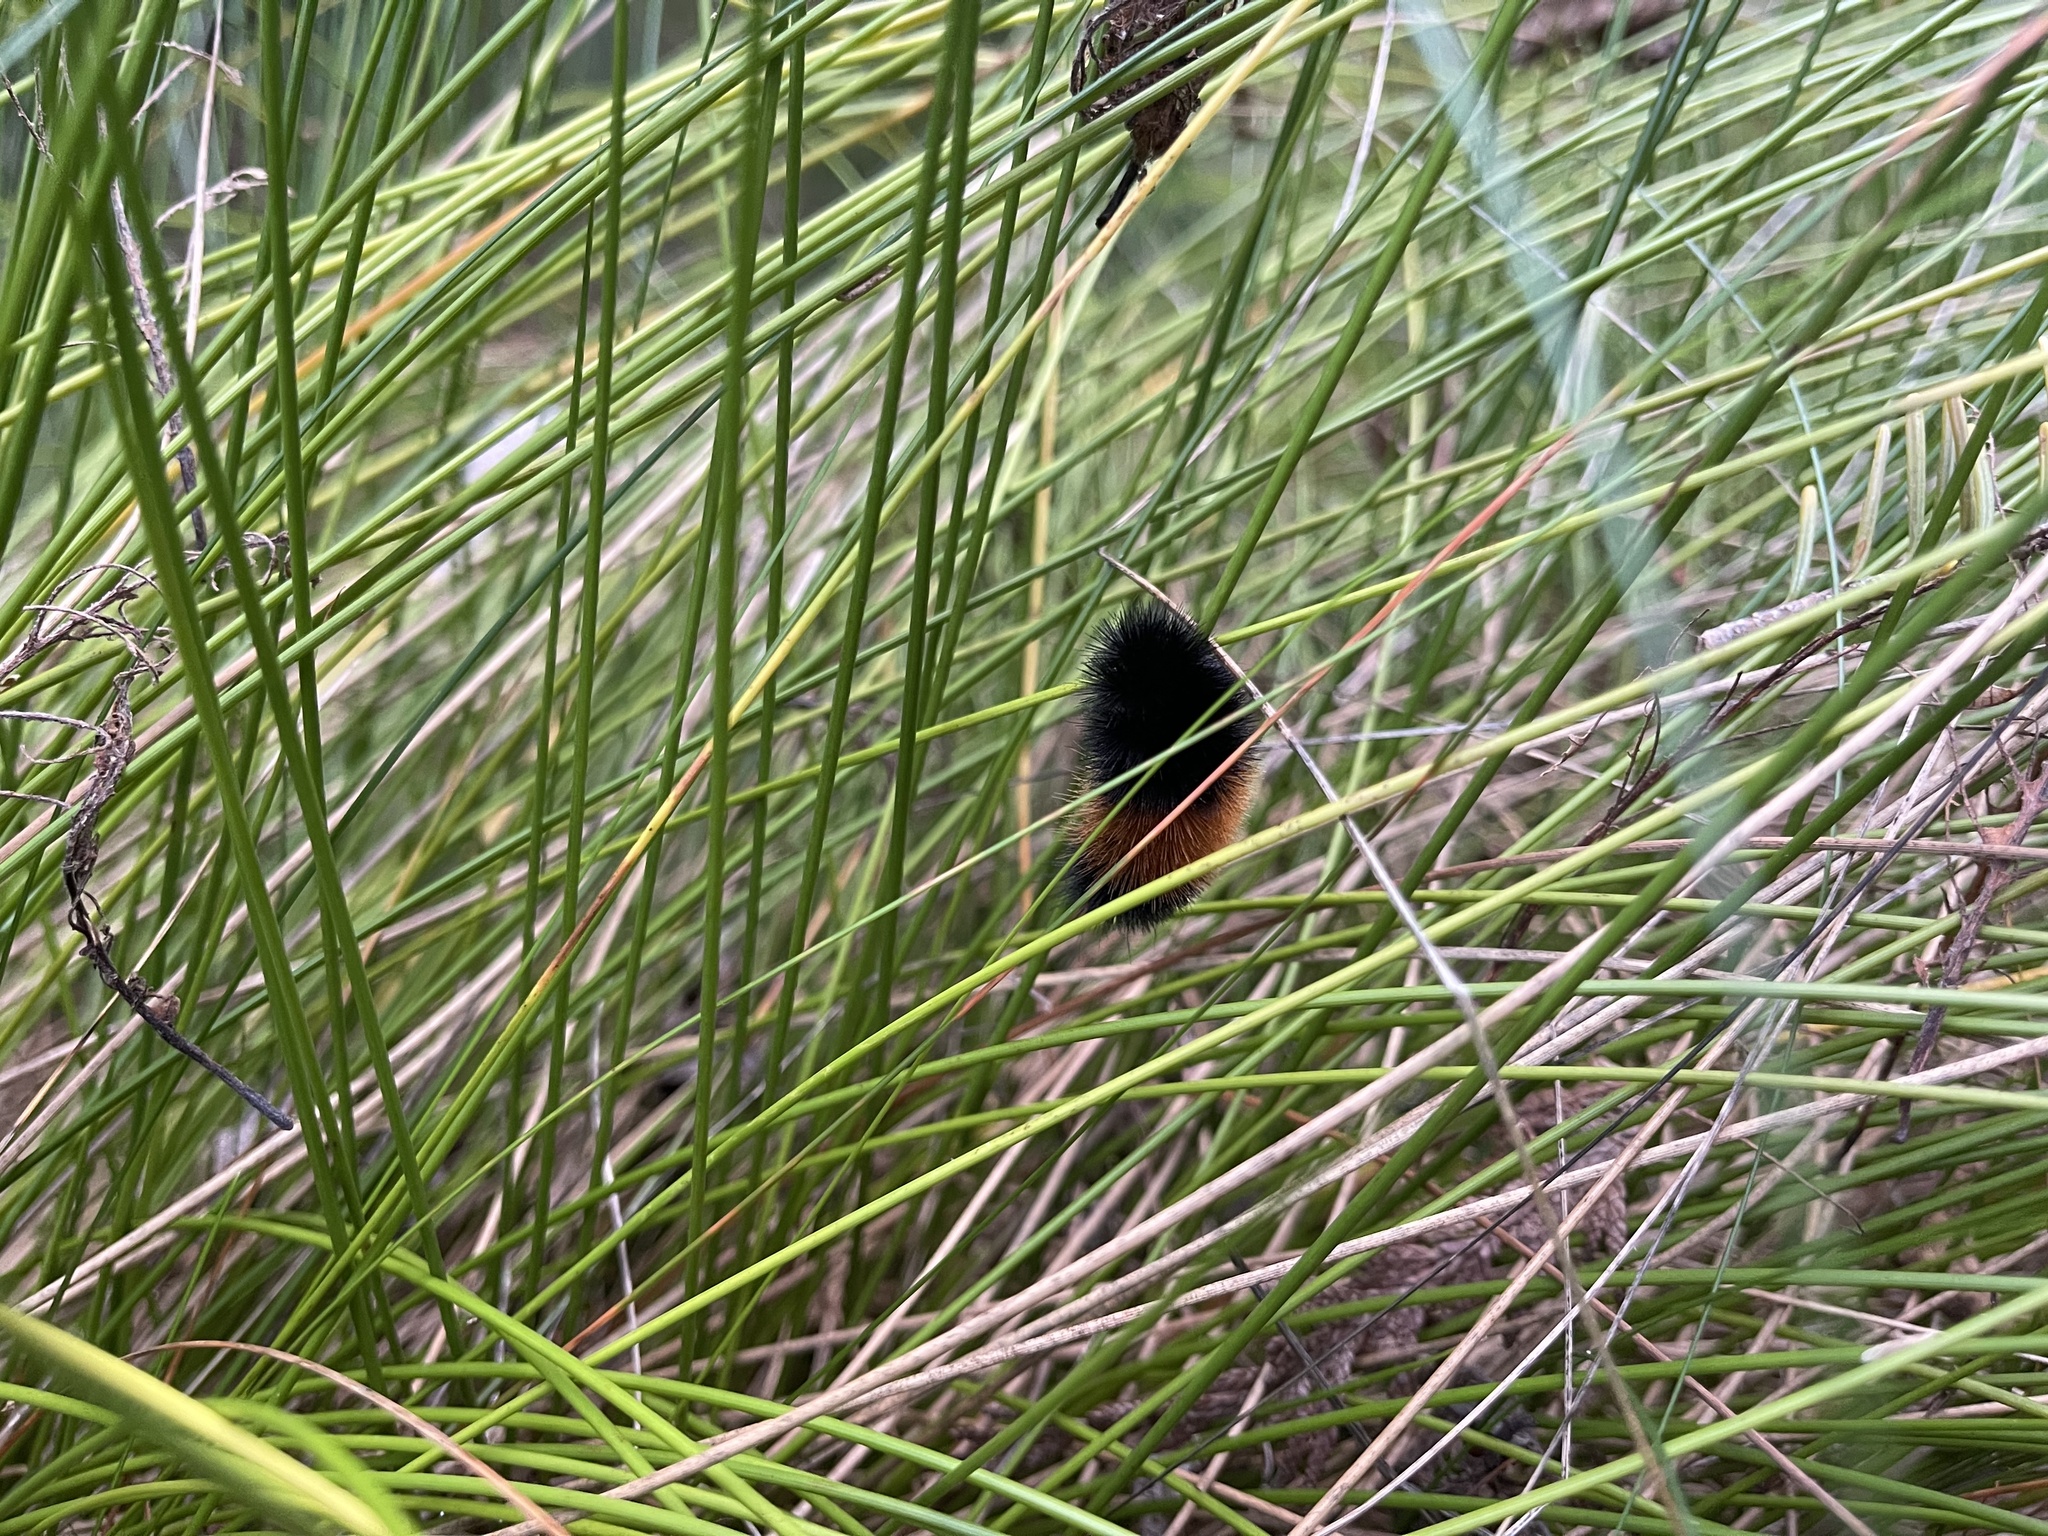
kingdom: Animalia
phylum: Arthropoda
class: Insecta
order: Lepidoptera
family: Erebidae
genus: Pyrrharctia
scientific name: Pyrrharctia isabella
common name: Isabella tiger moth
